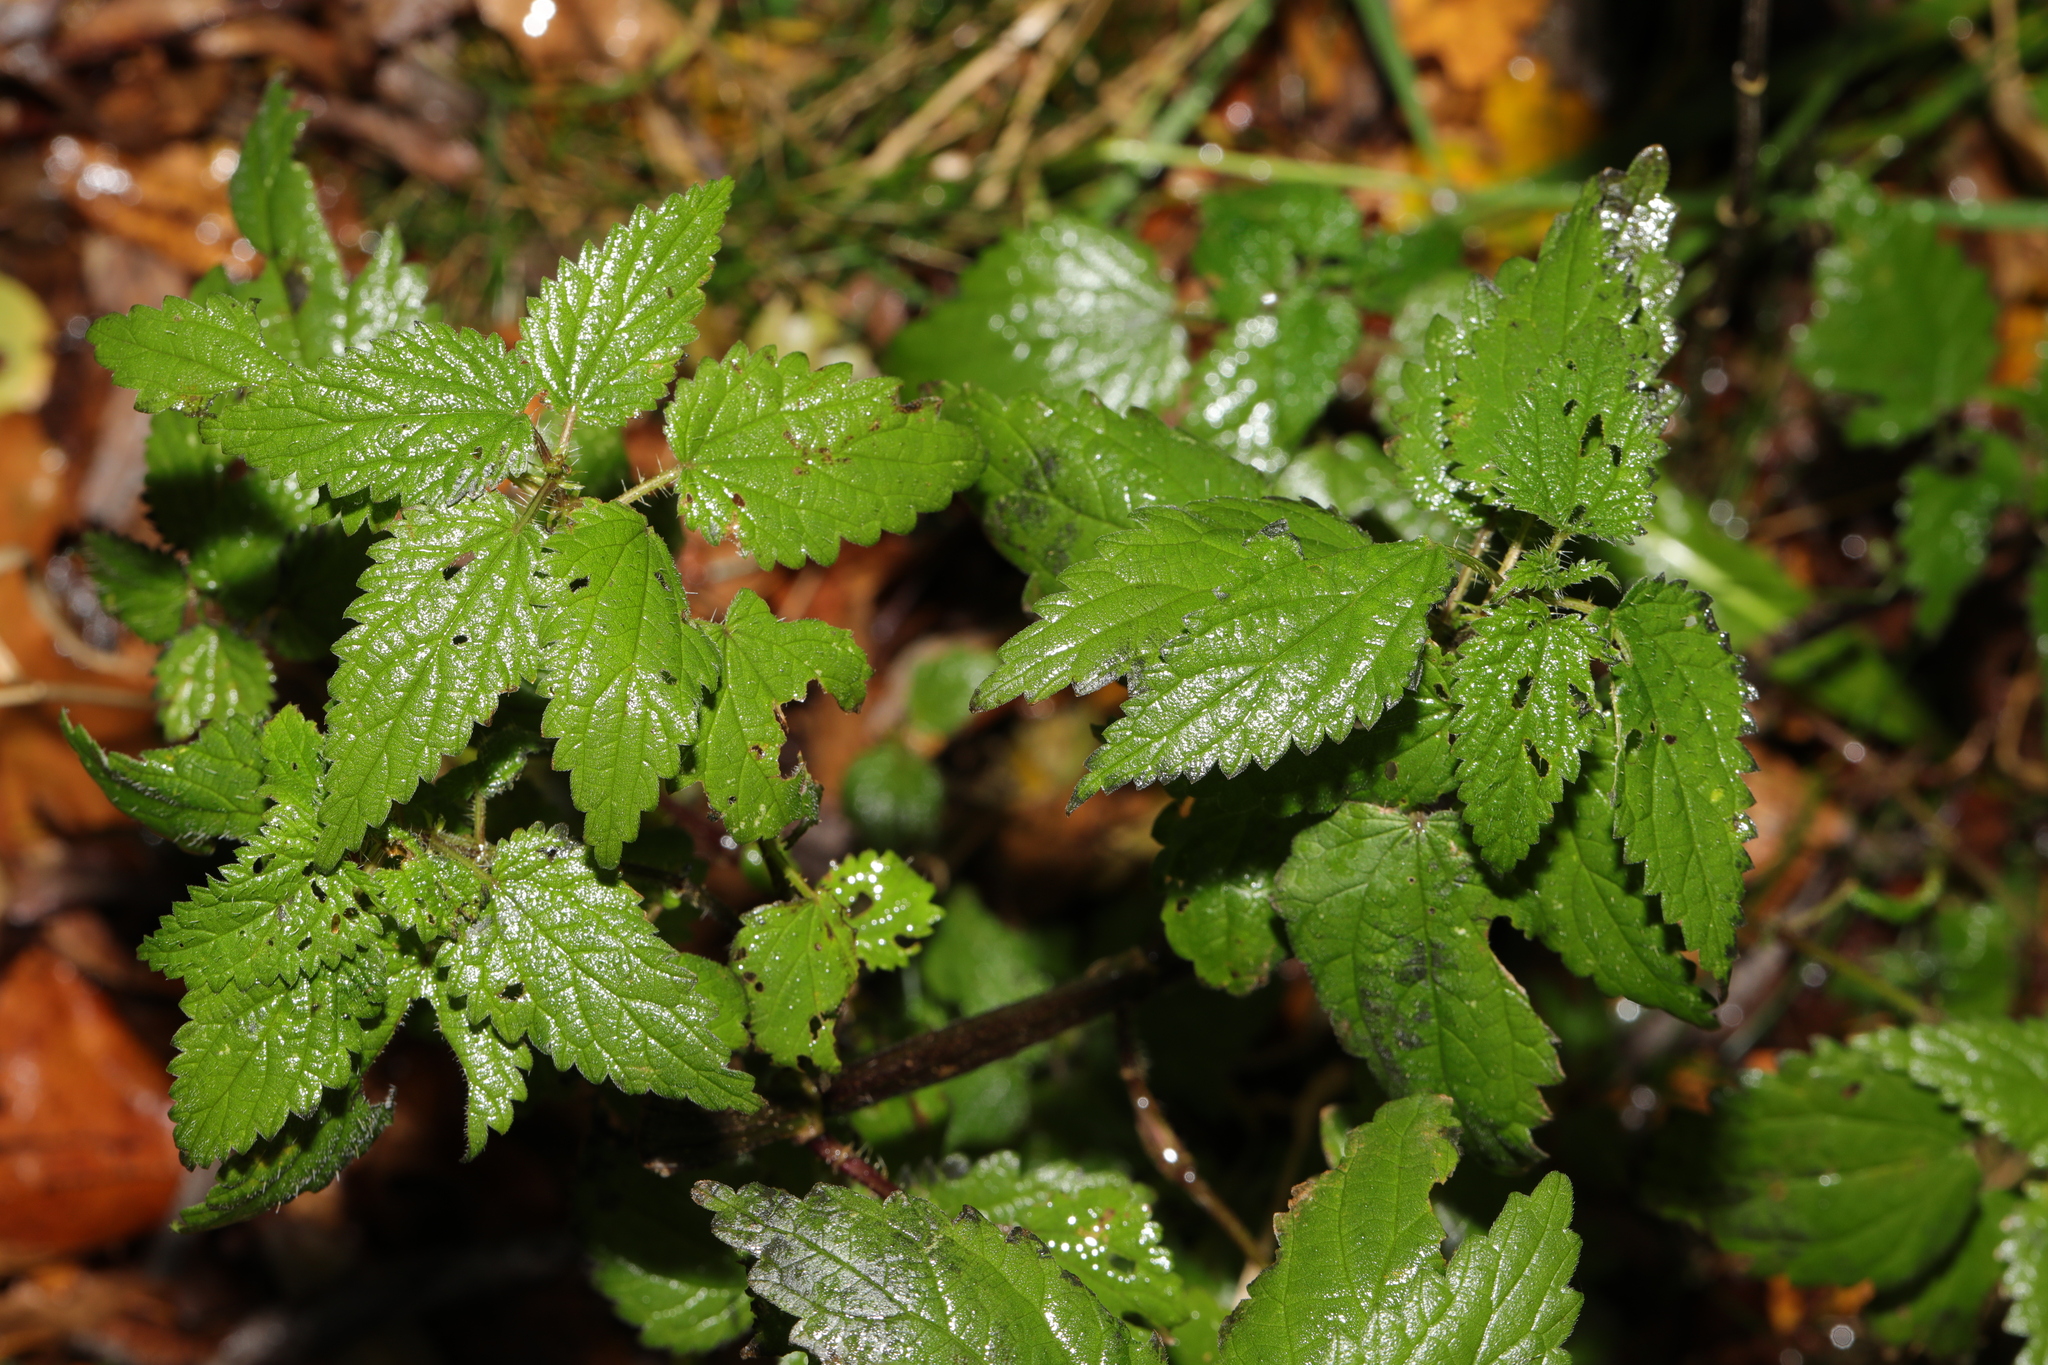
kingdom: Plantae
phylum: Tracheophyta
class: Magnoliopsida
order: Rosales
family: Urticaceae
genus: Urtica
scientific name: Urtica dioica
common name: Common nettle
